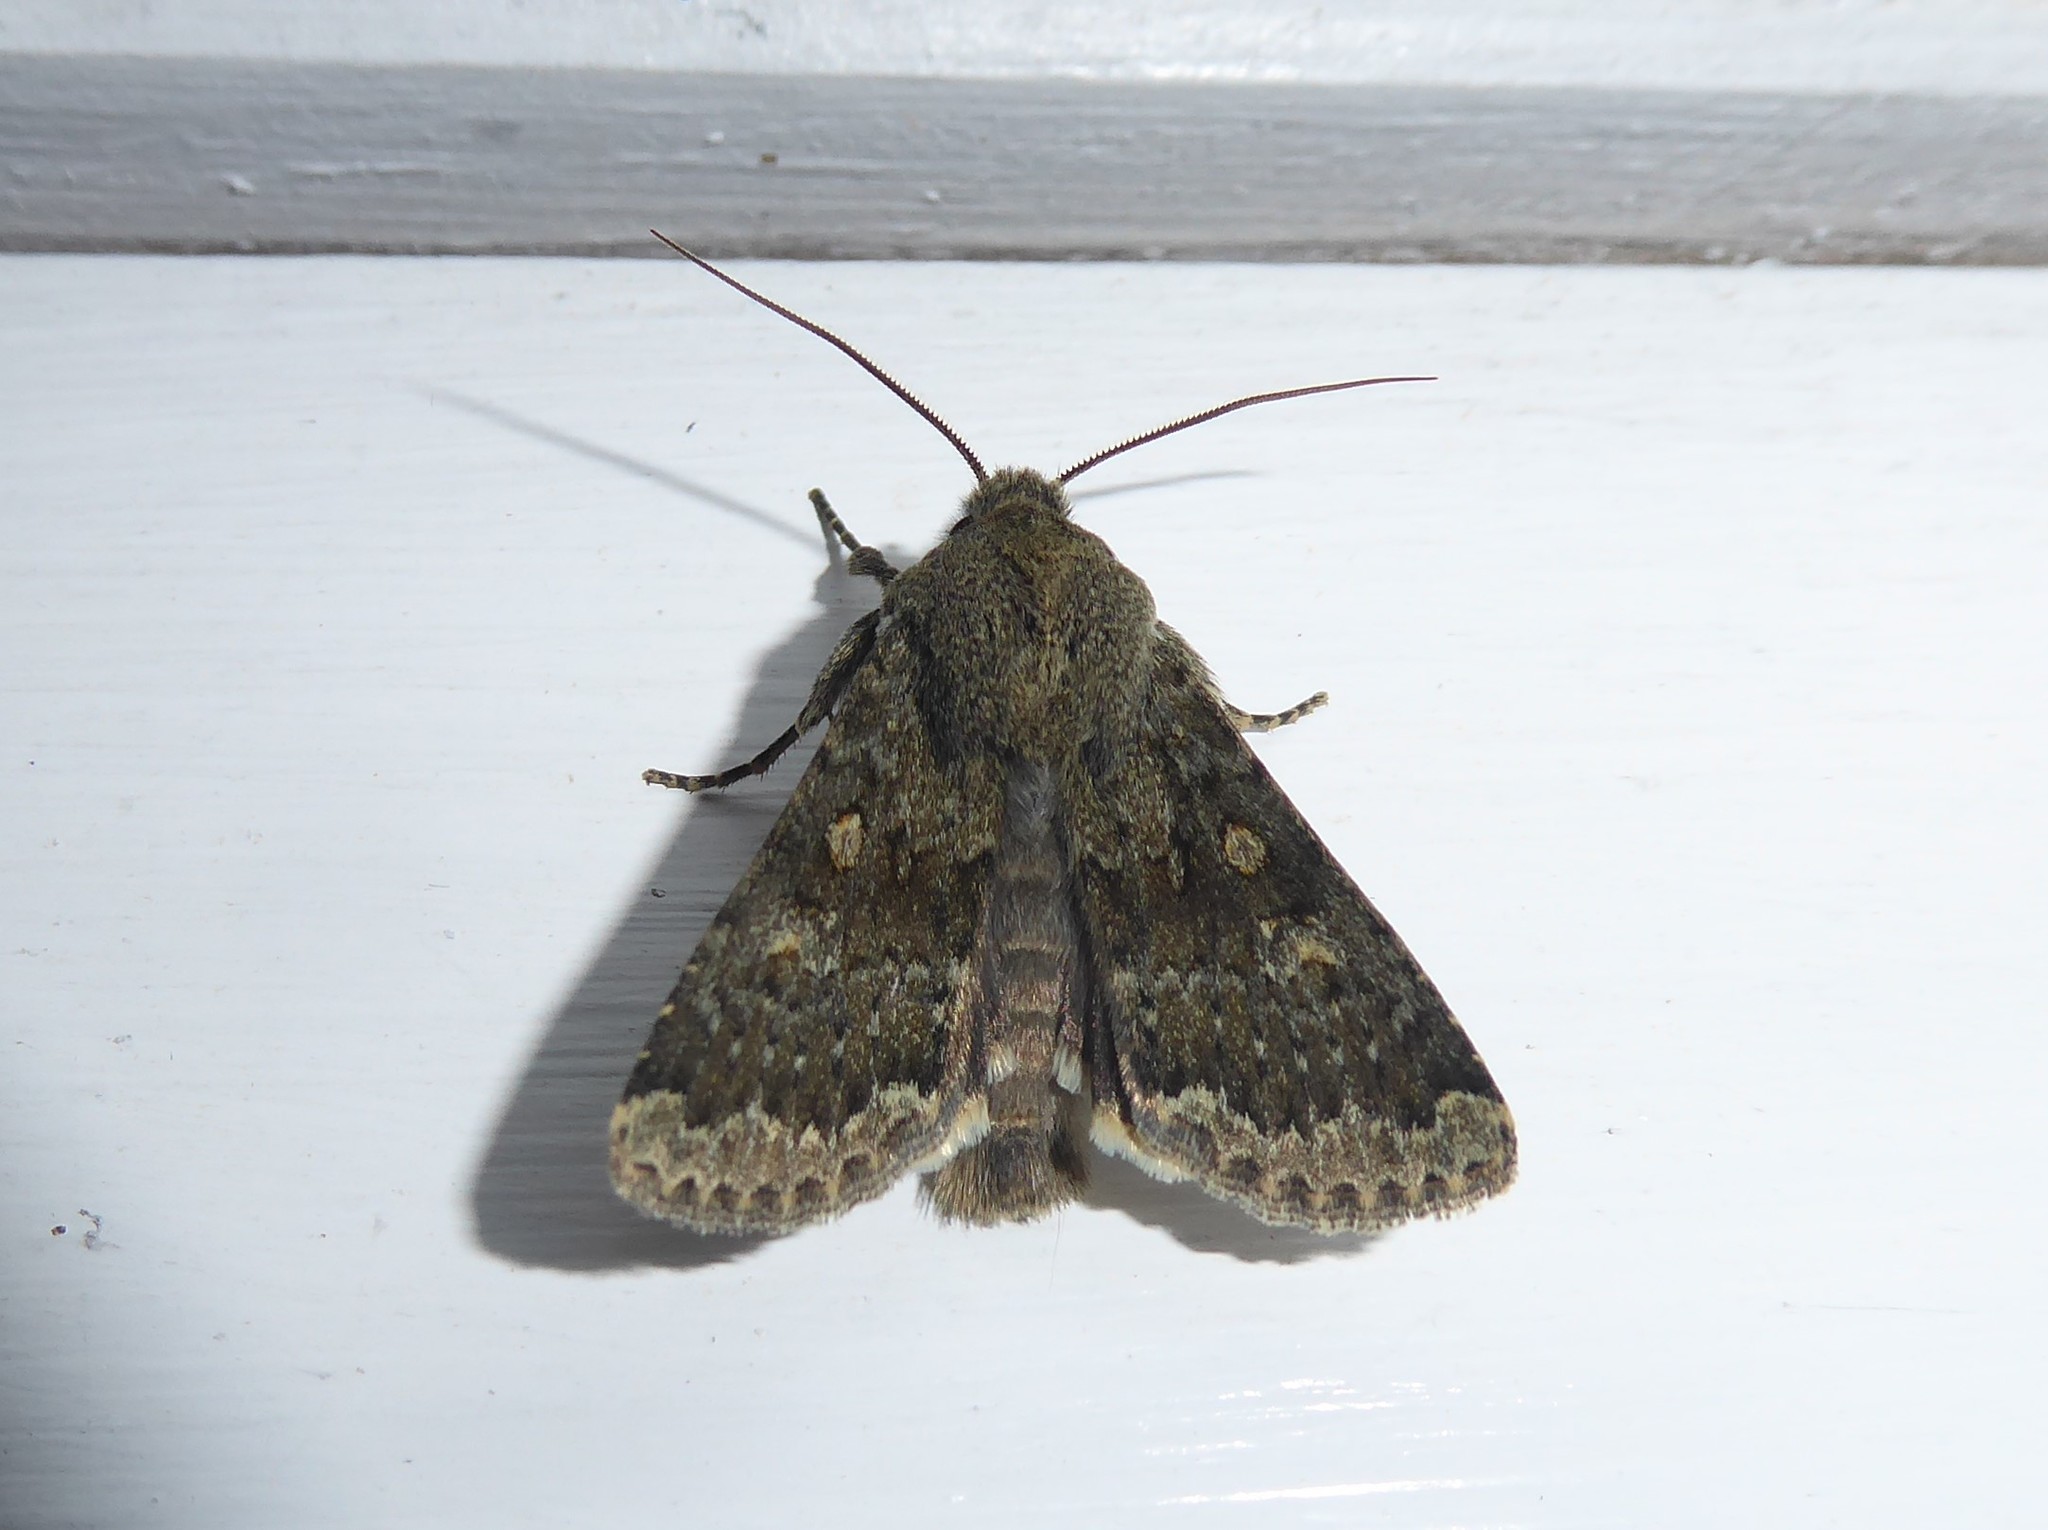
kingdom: Animalia
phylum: Arthropoda
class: Insecta
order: Lepidoptera
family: Noctuidae
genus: Ichneutica
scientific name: Ichneutica moderata
